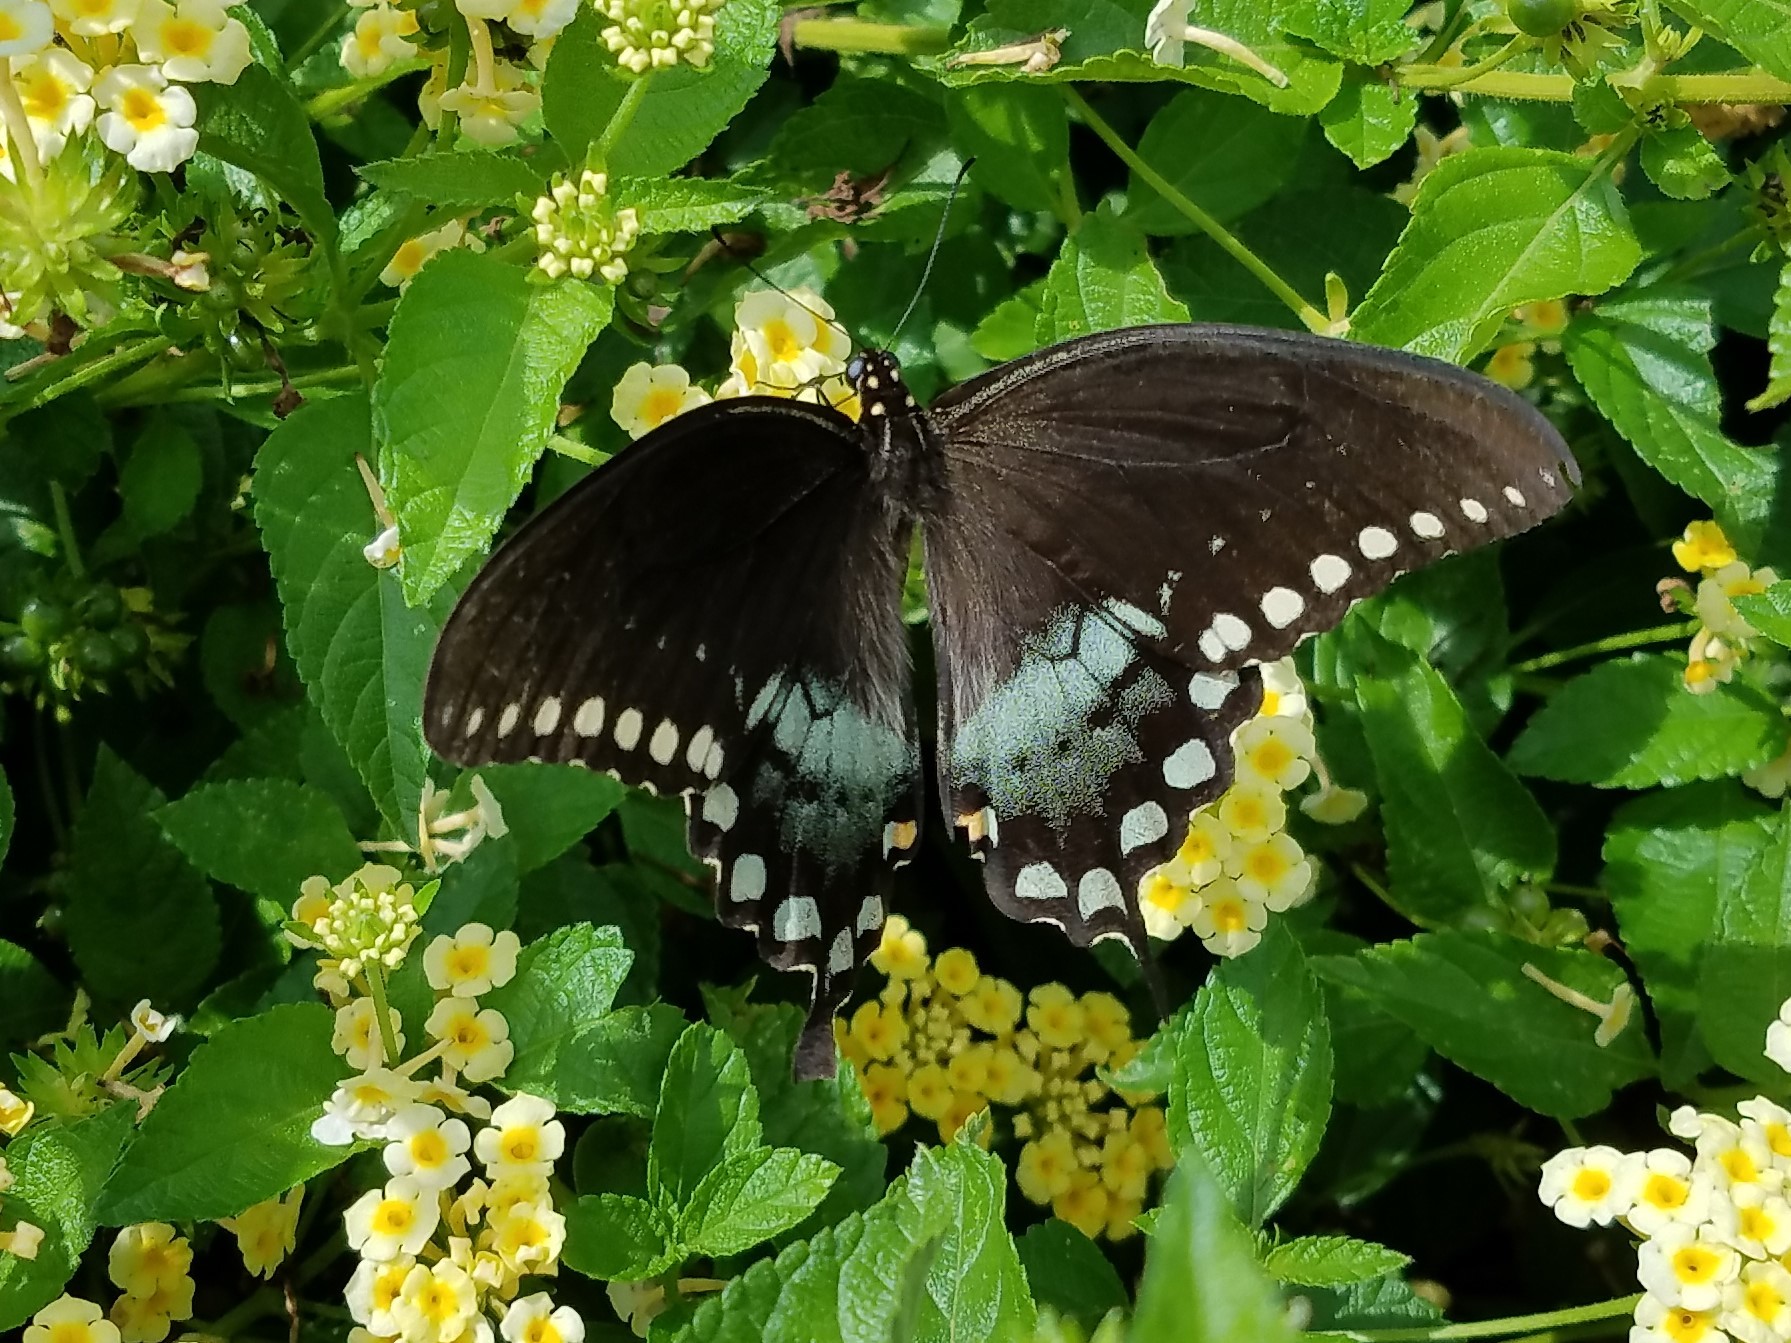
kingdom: Animalia
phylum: Arthropoda
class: Insecta
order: Lepidoptera
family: Papilionidae
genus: Papilio
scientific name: Papilio troilus
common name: Spicebush swallowtail
